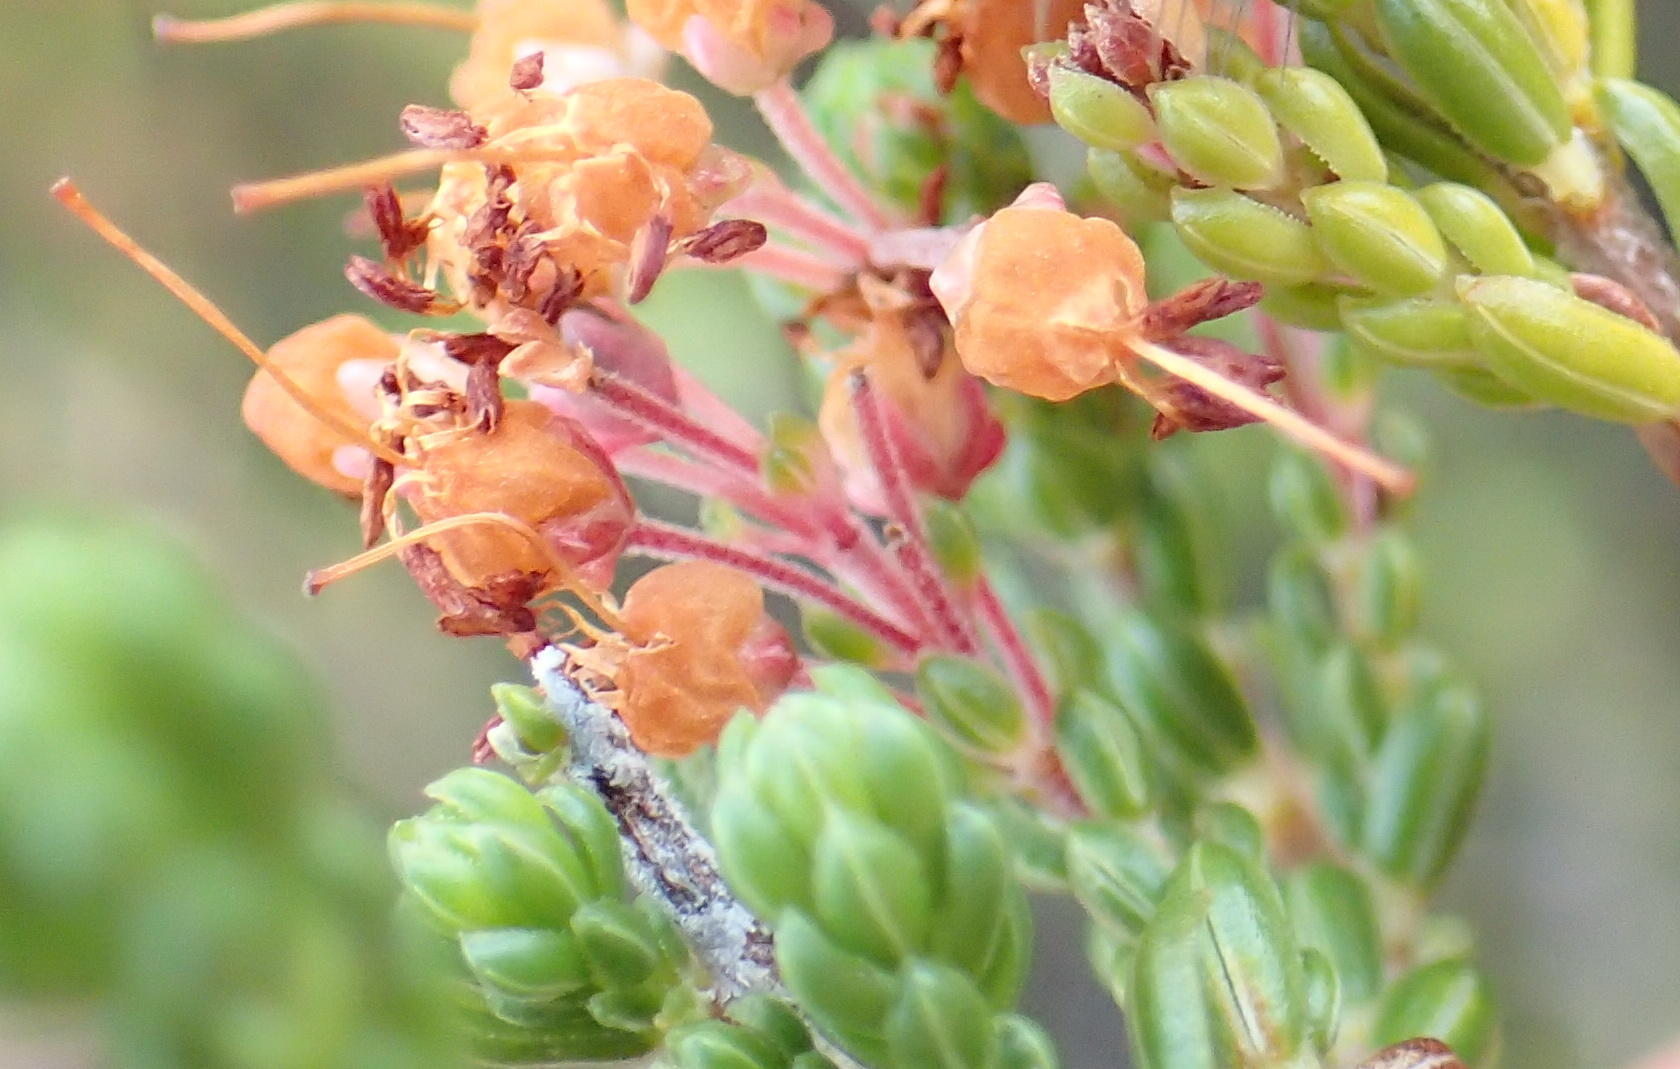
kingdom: Plantae
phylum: Tracheophyta
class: Magnoliopsida
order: Ericales
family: Ericaceae
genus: Erica
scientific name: Erica demissa
